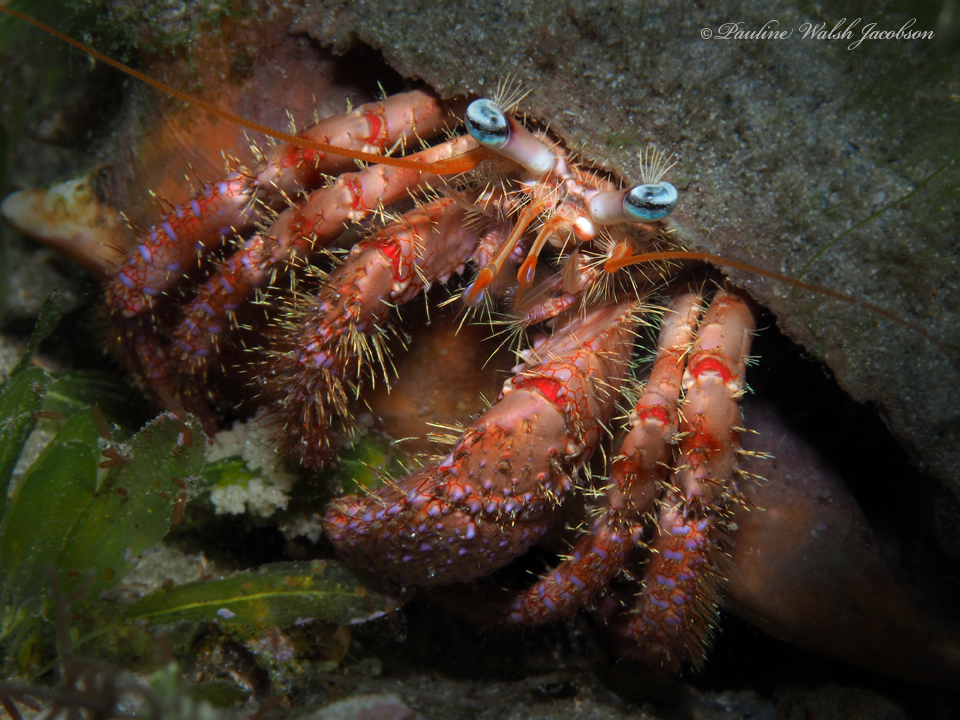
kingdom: Animalia
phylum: Arthropoda
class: Malacostraca
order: Decapoda
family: Diogenidae
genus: Dardanus
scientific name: Dardanus fucosus
